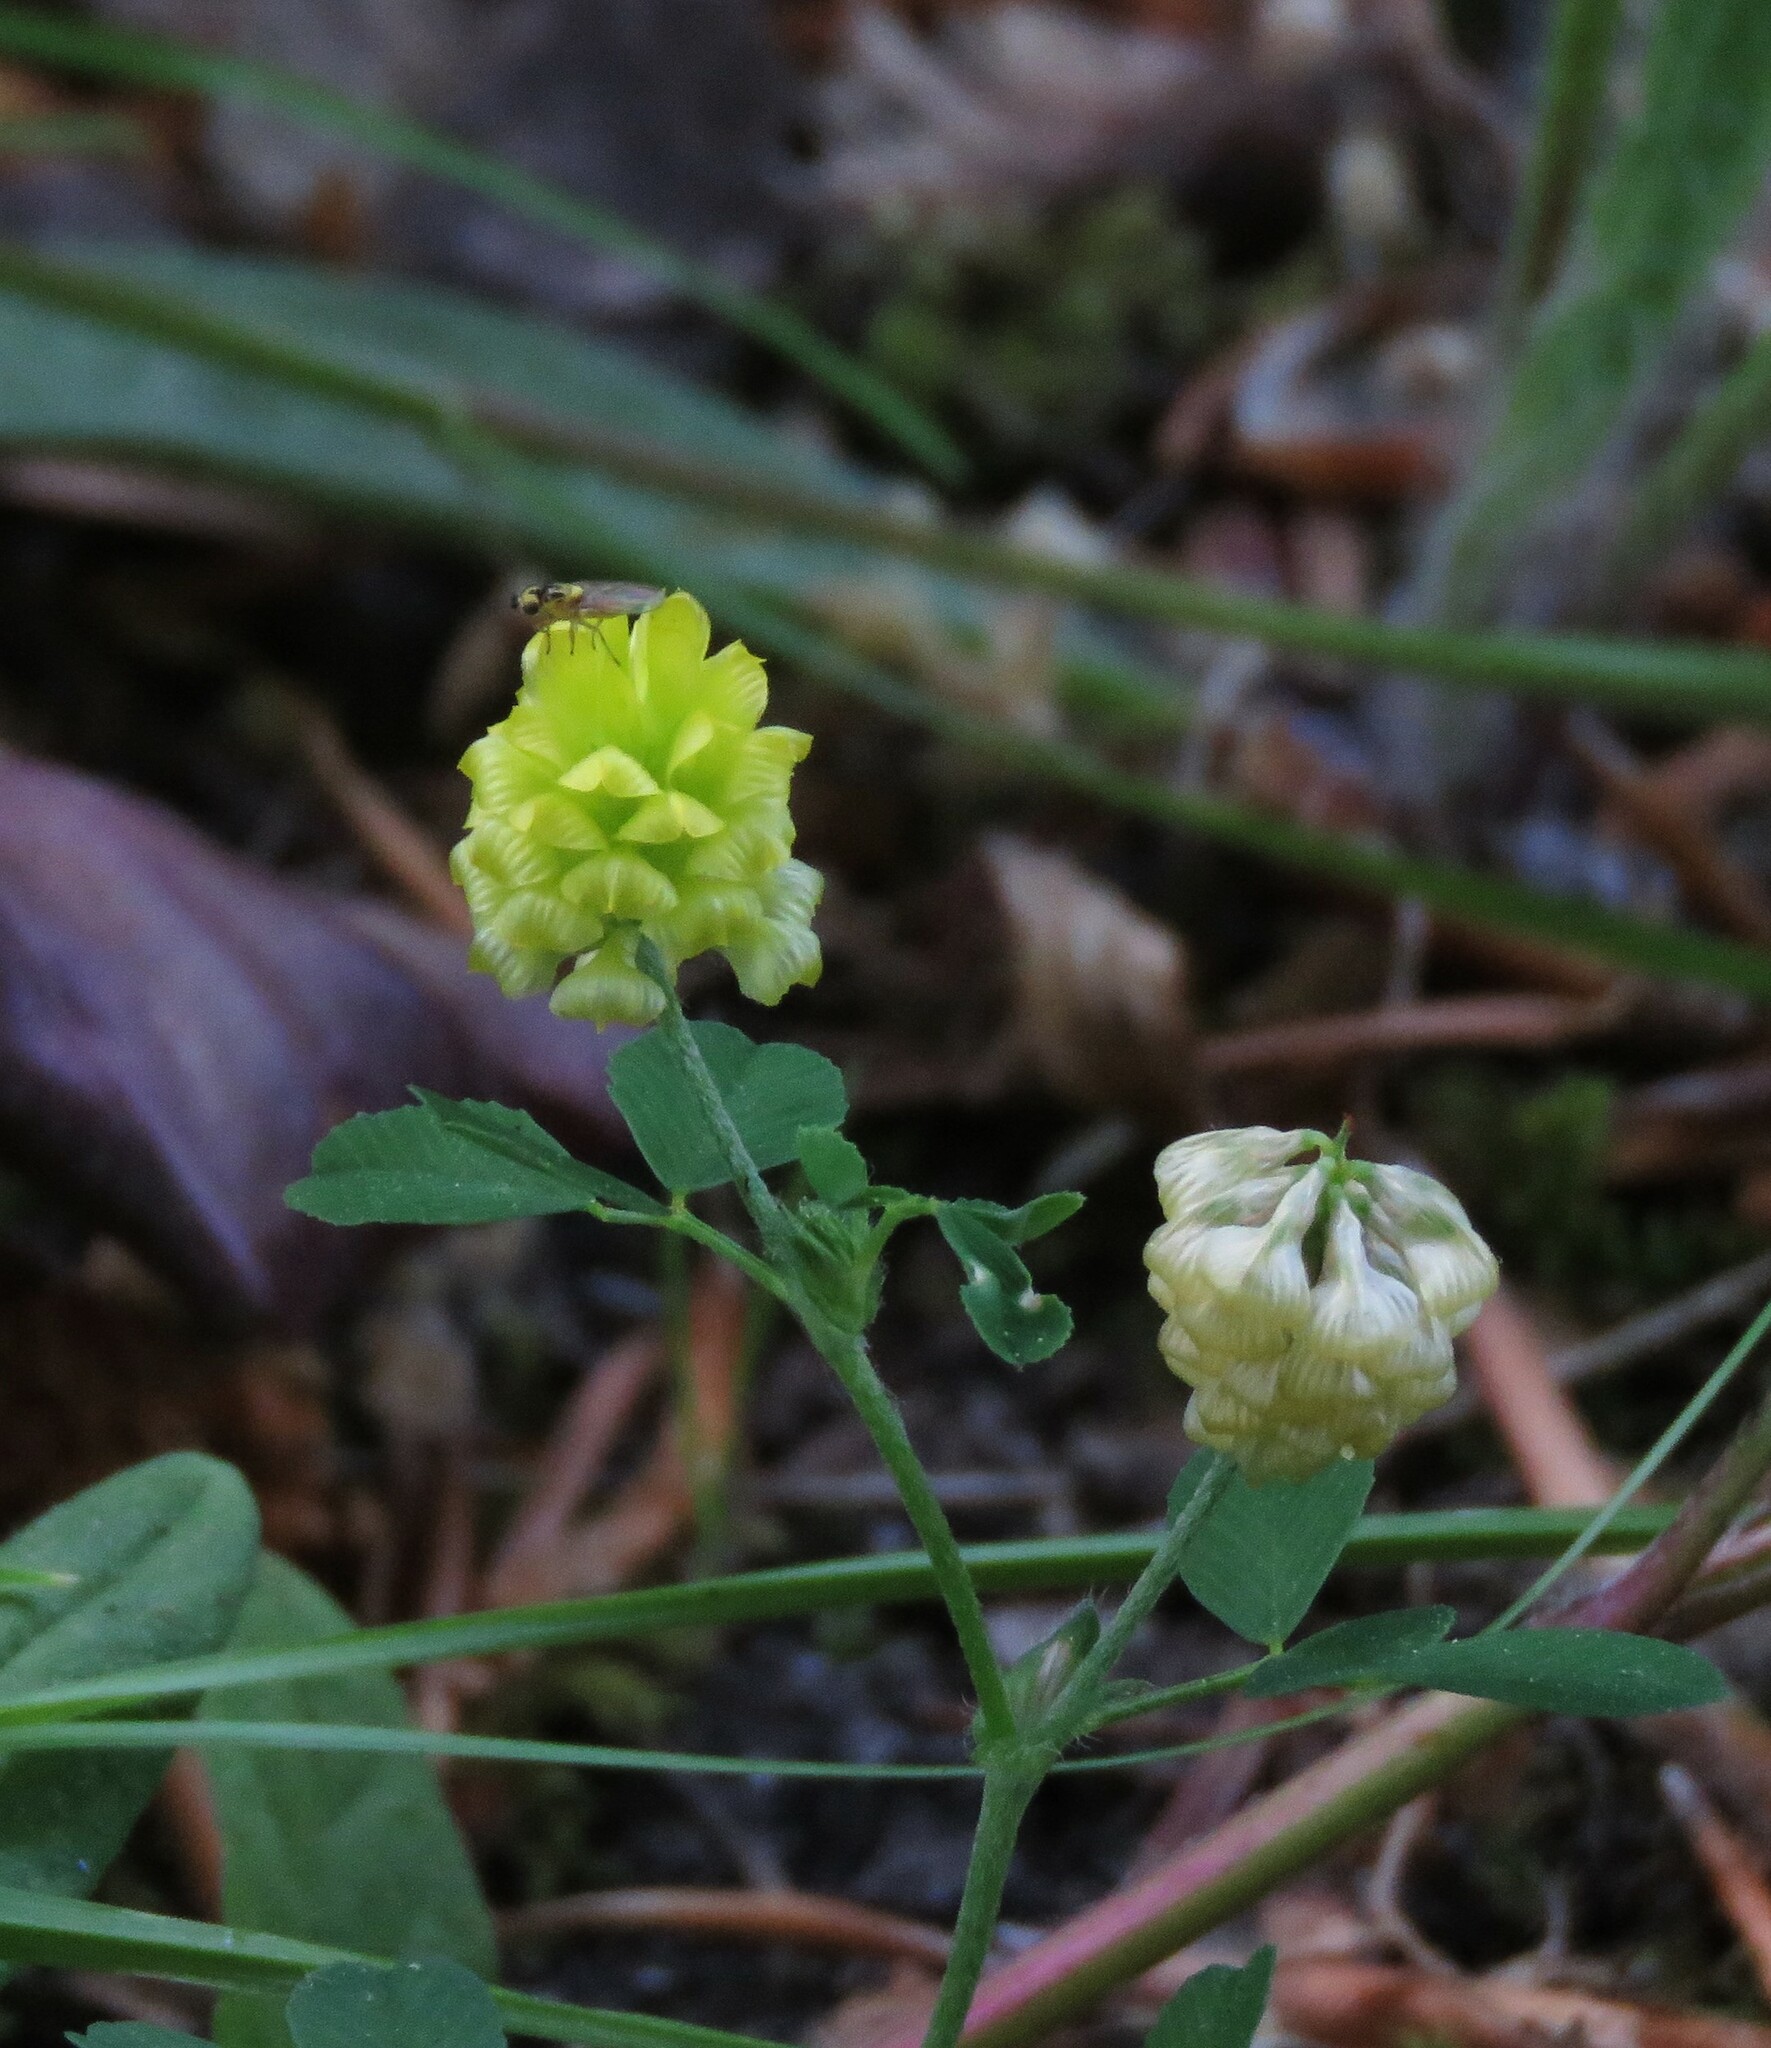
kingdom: Plantae
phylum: Tracheophyta
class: Magnoliopsida
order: Fabales
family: Fabaceae
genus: Trifolium
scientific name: Trifolium campestre
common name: Field clover
